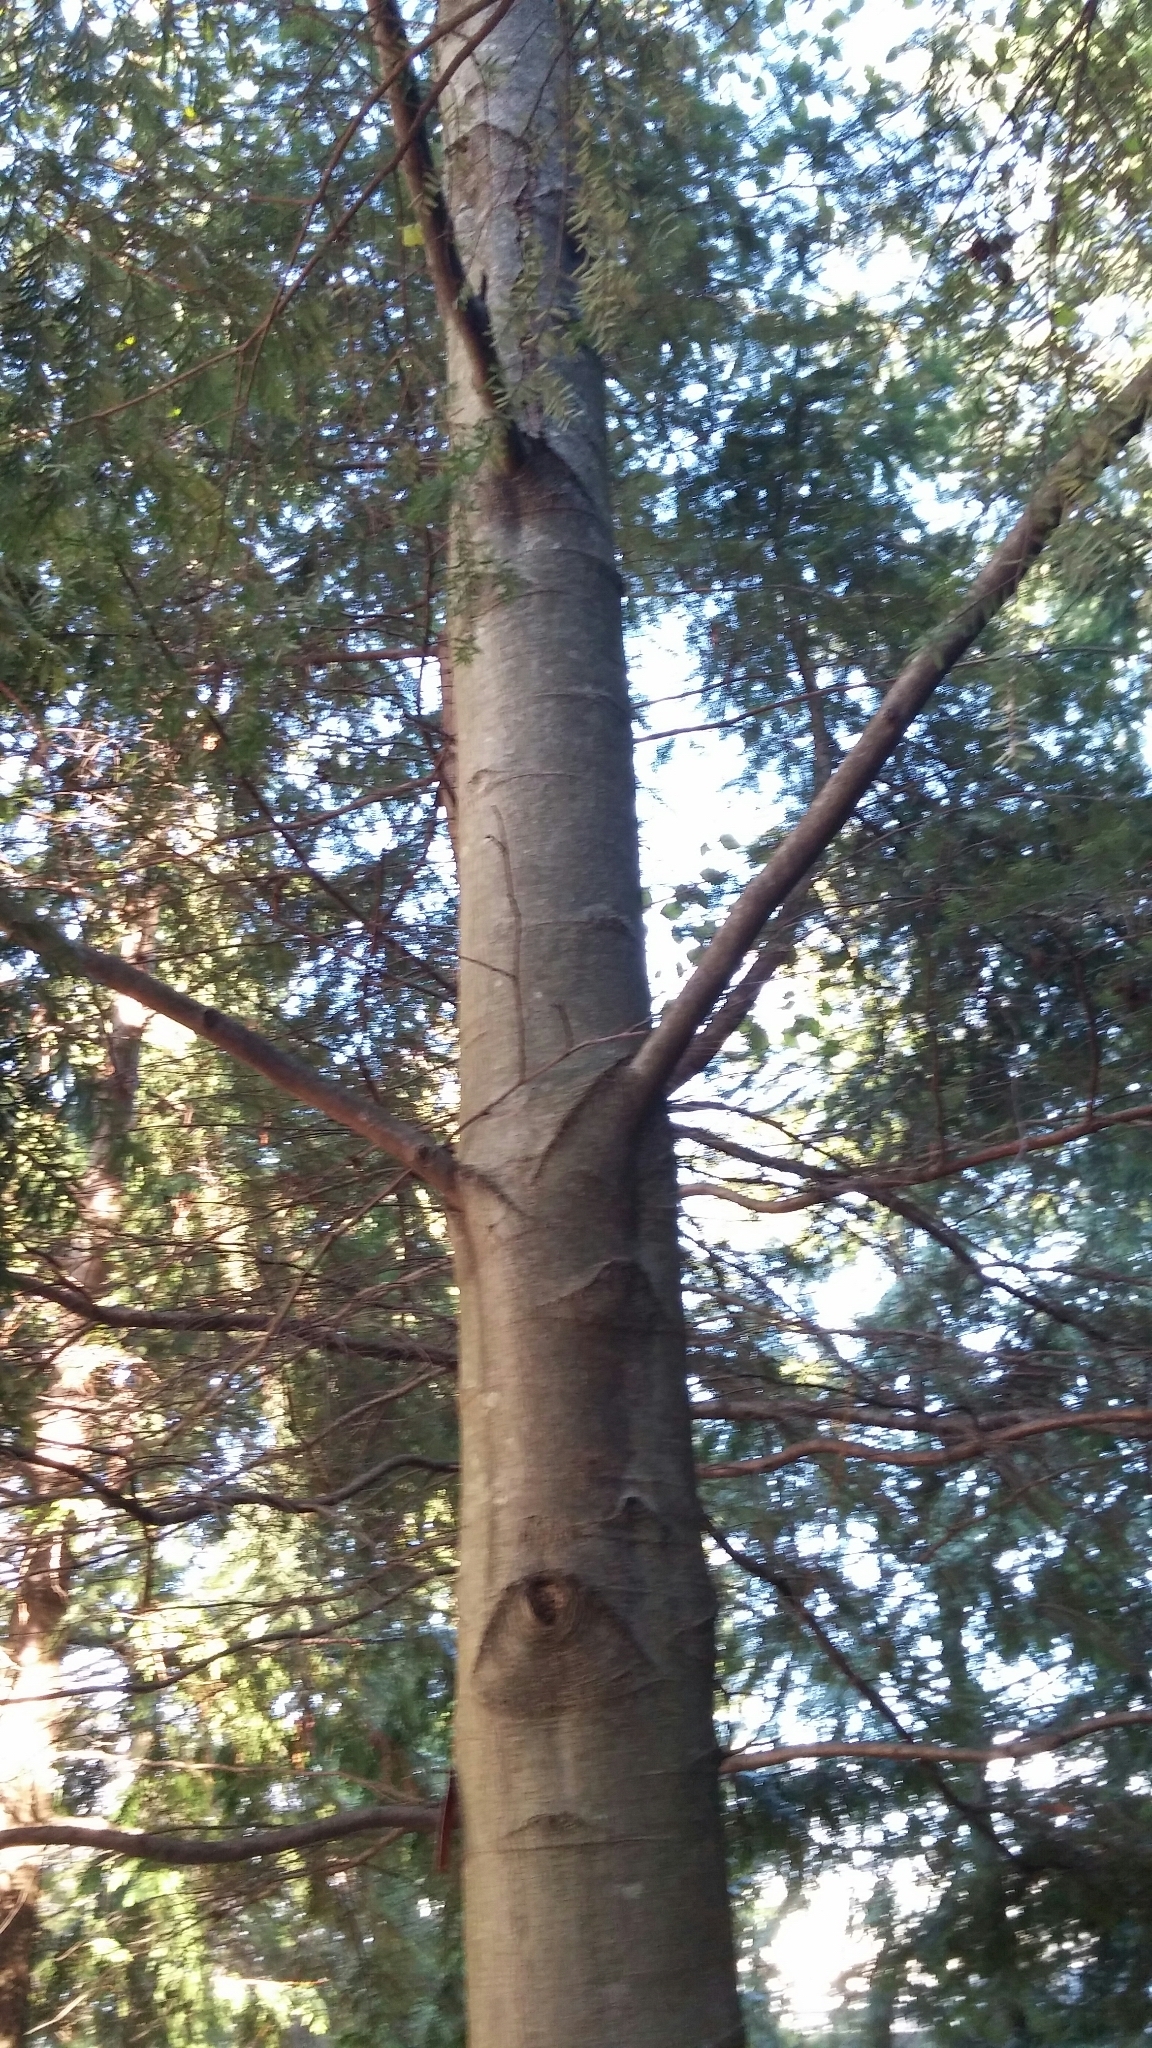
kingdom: Plantae
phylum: Tracheophyta
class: Magnoliopsida
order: Fagales
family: Betulaceae
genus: Alnus
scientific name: Alnus rubra
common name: Red alder
